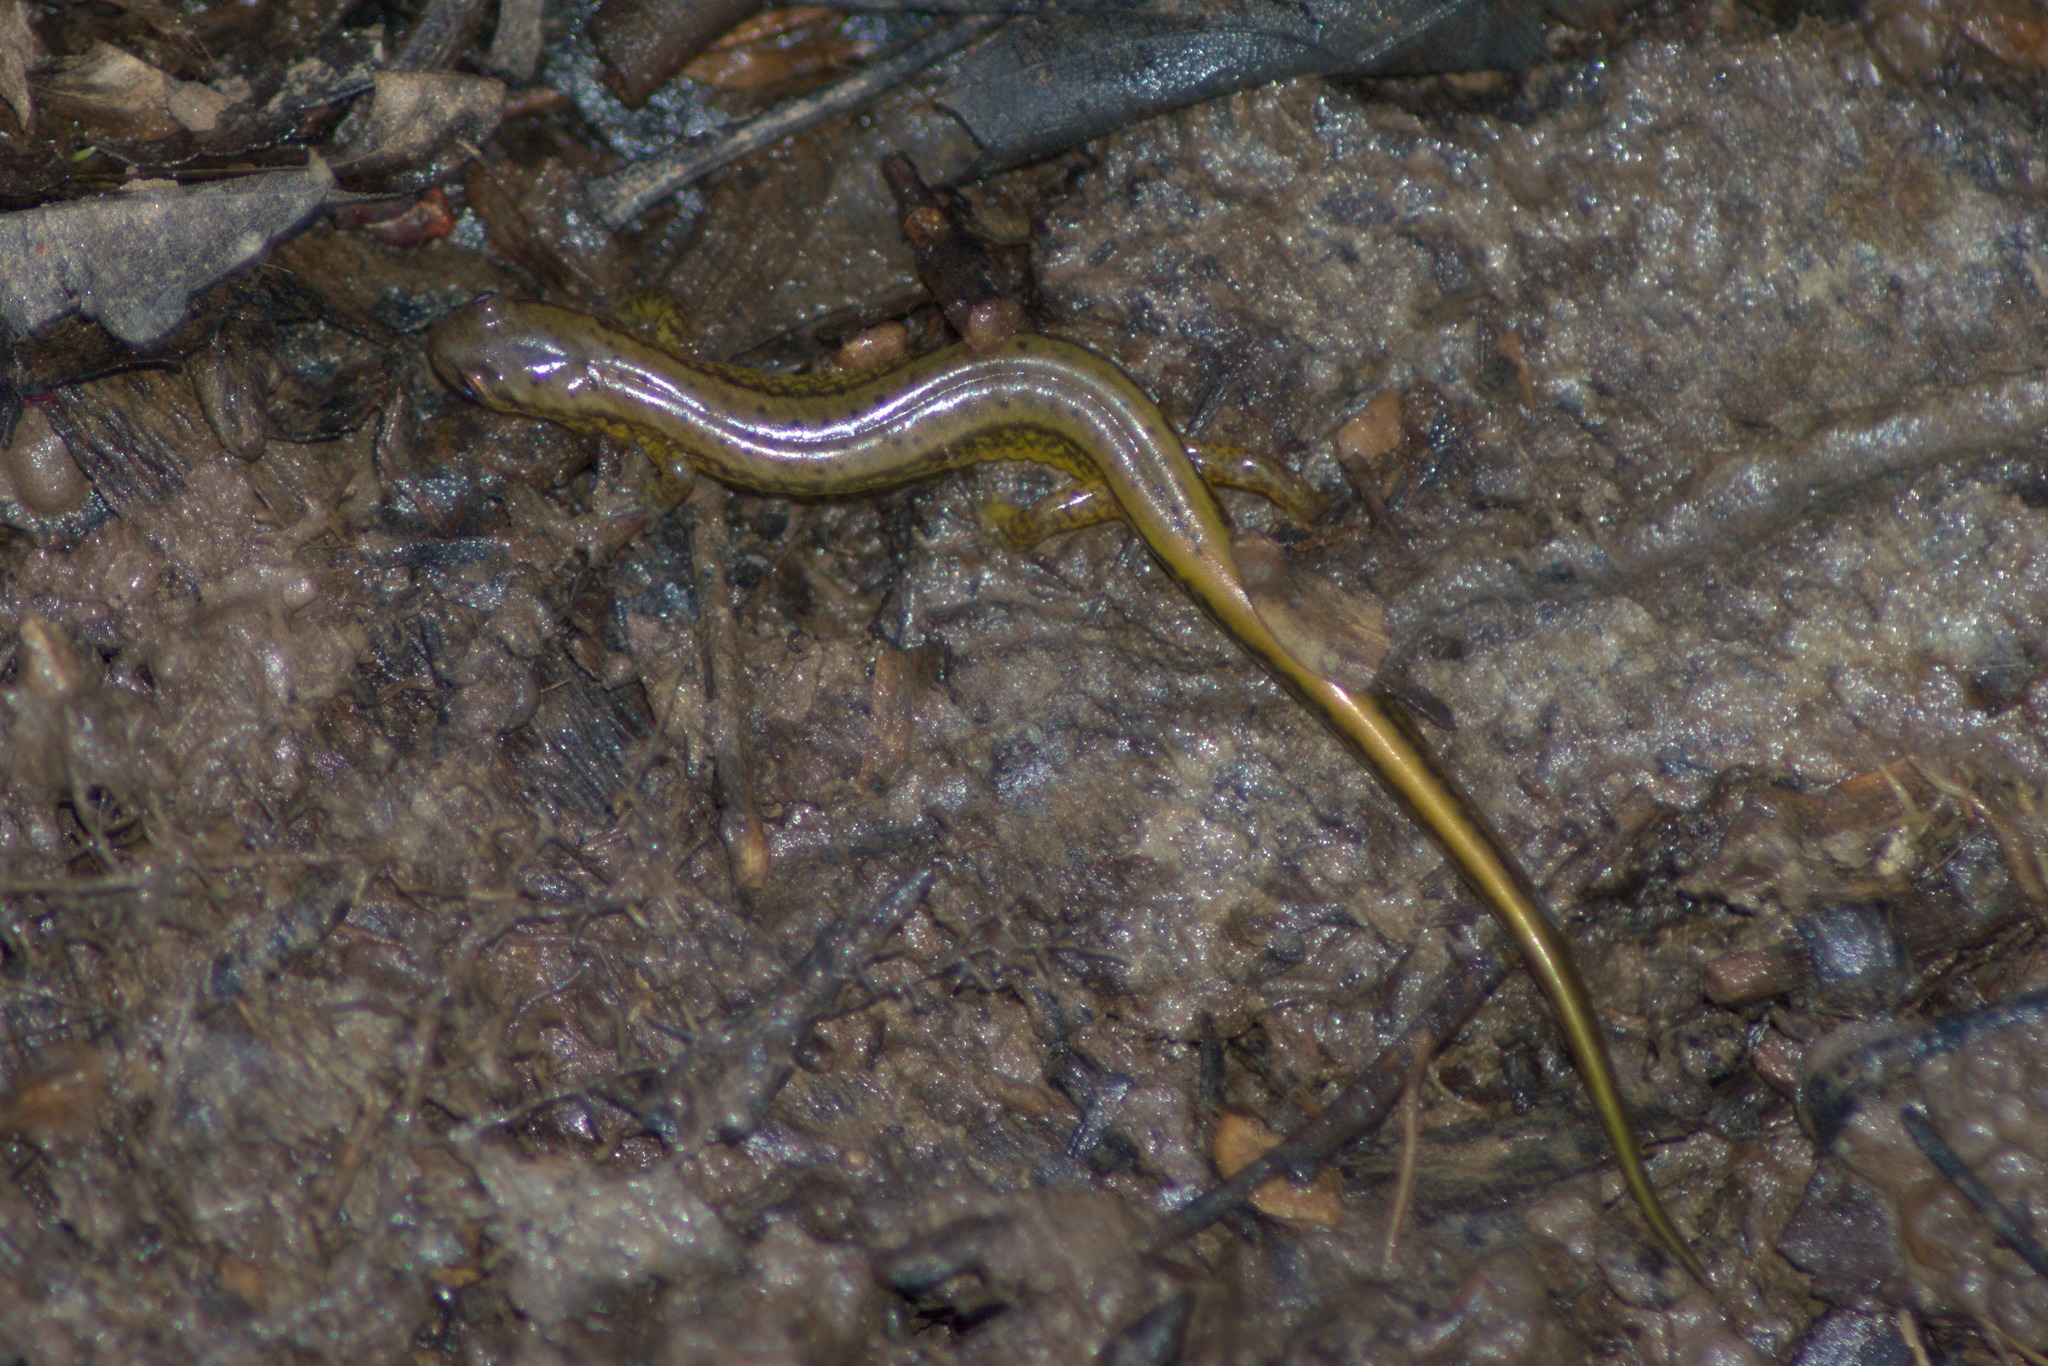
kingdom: Animalia
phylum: Chordata
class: Amphibia
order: Caudata
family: Plethodontidae
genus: Eurycea
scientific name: Eurycea bislineata
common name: Northern two-lined salamander
